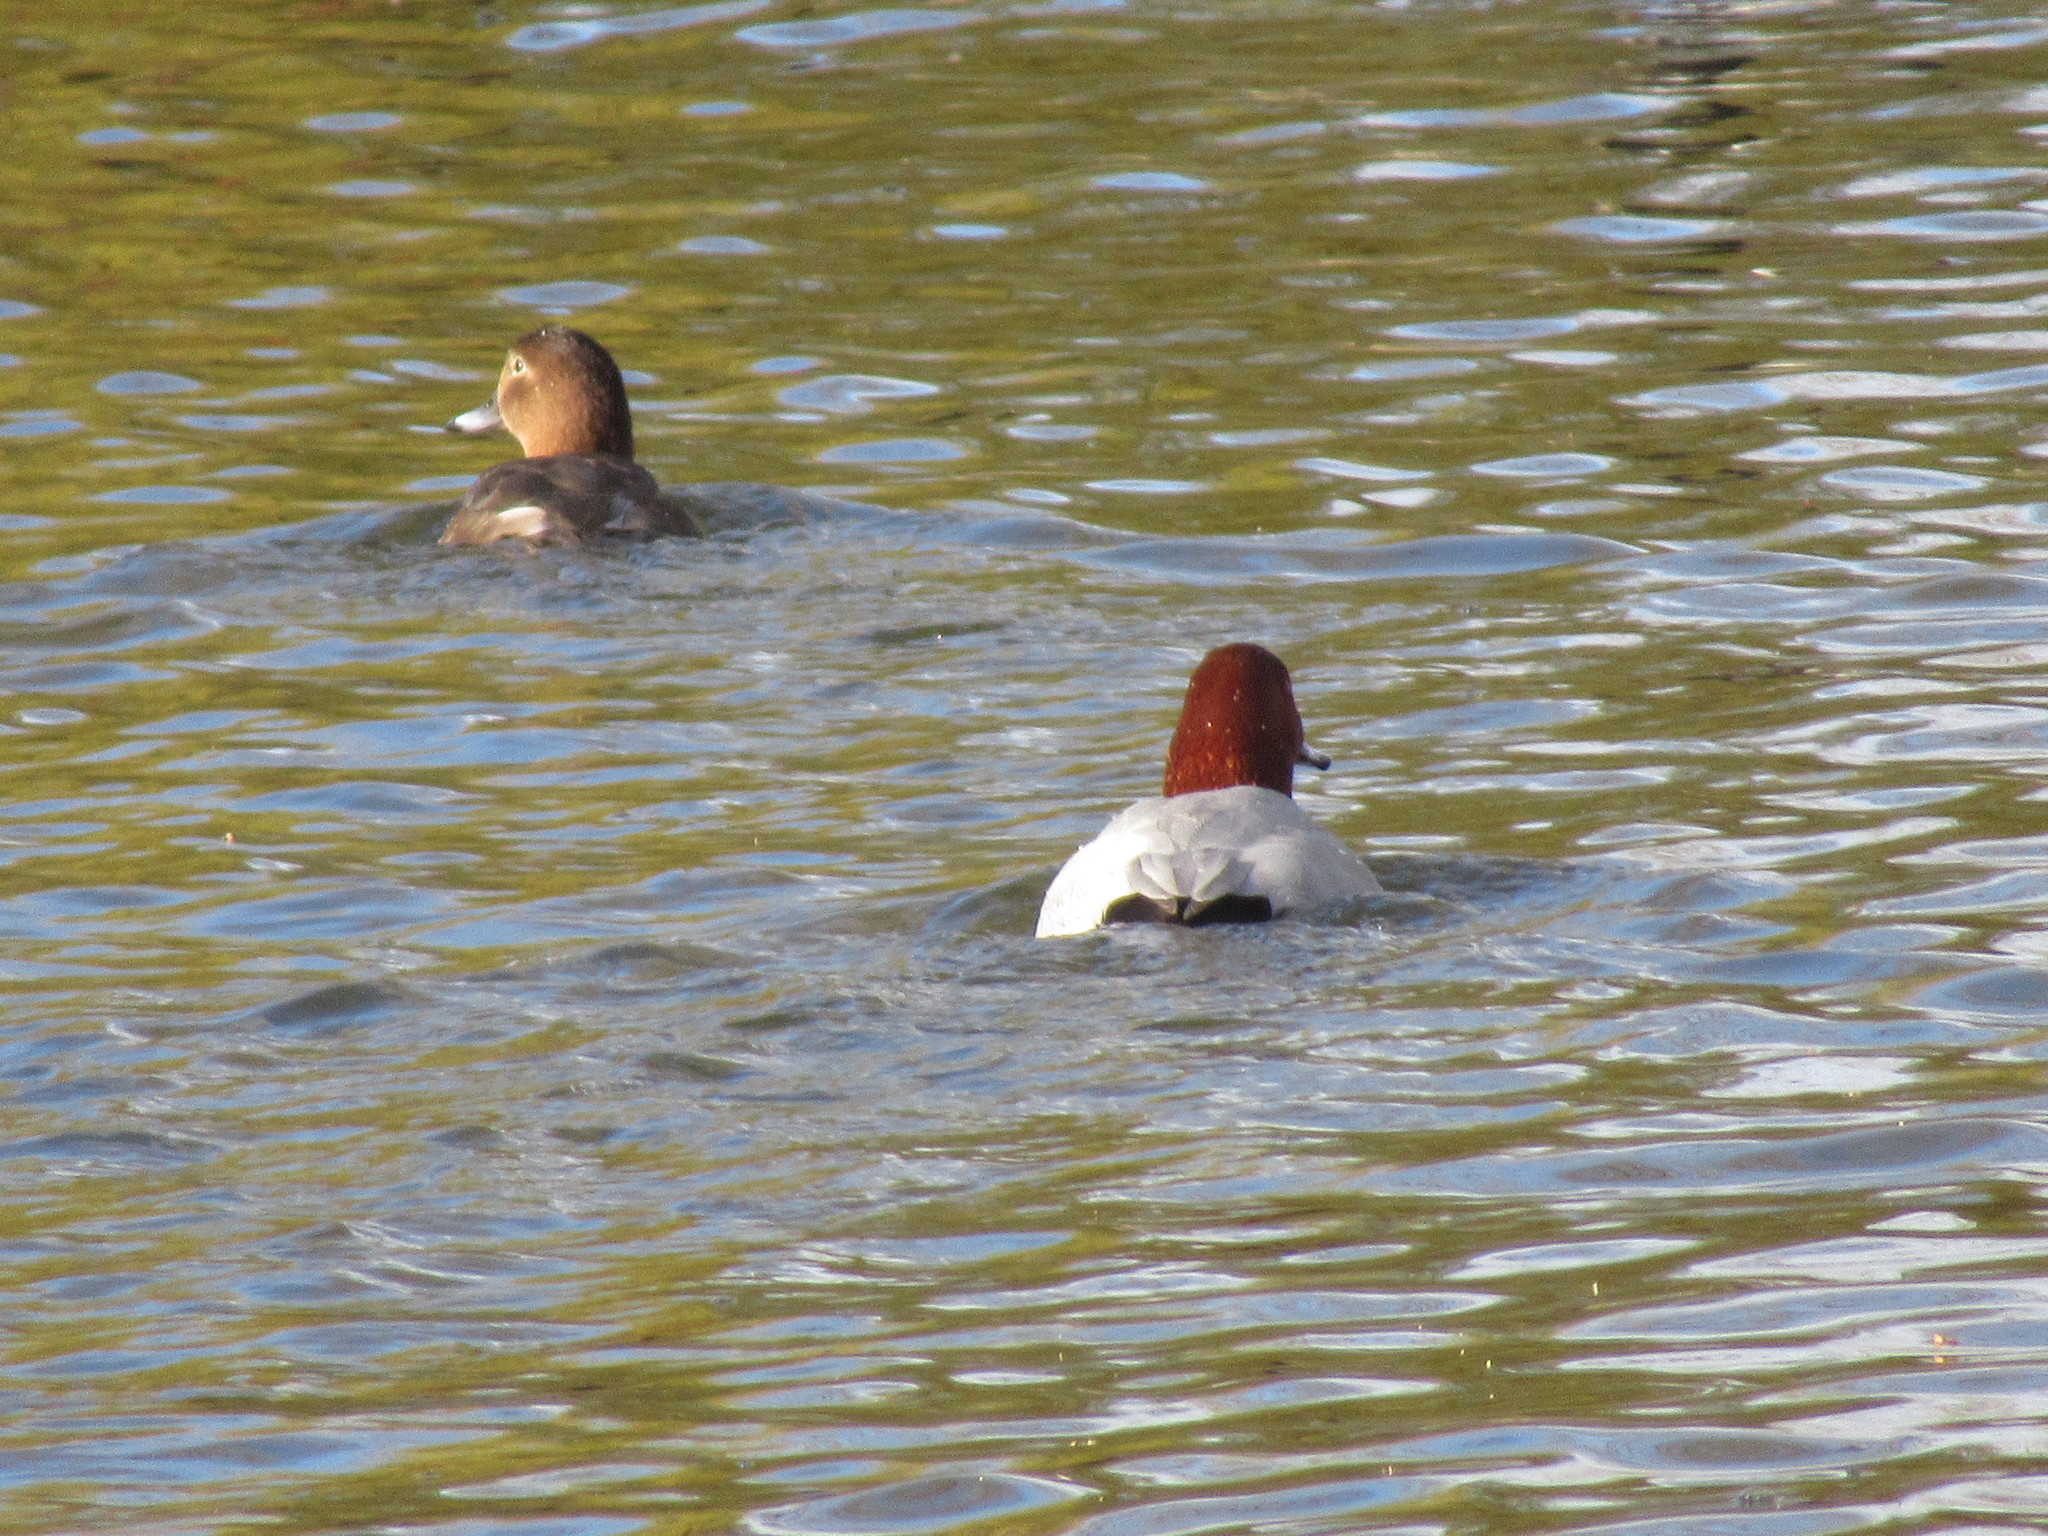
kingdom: Animalia
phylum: Chordata
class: Aves
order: Anseriformes
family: Anatidae
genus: Aythya
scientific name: Aythya ferina
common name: Common pochard
